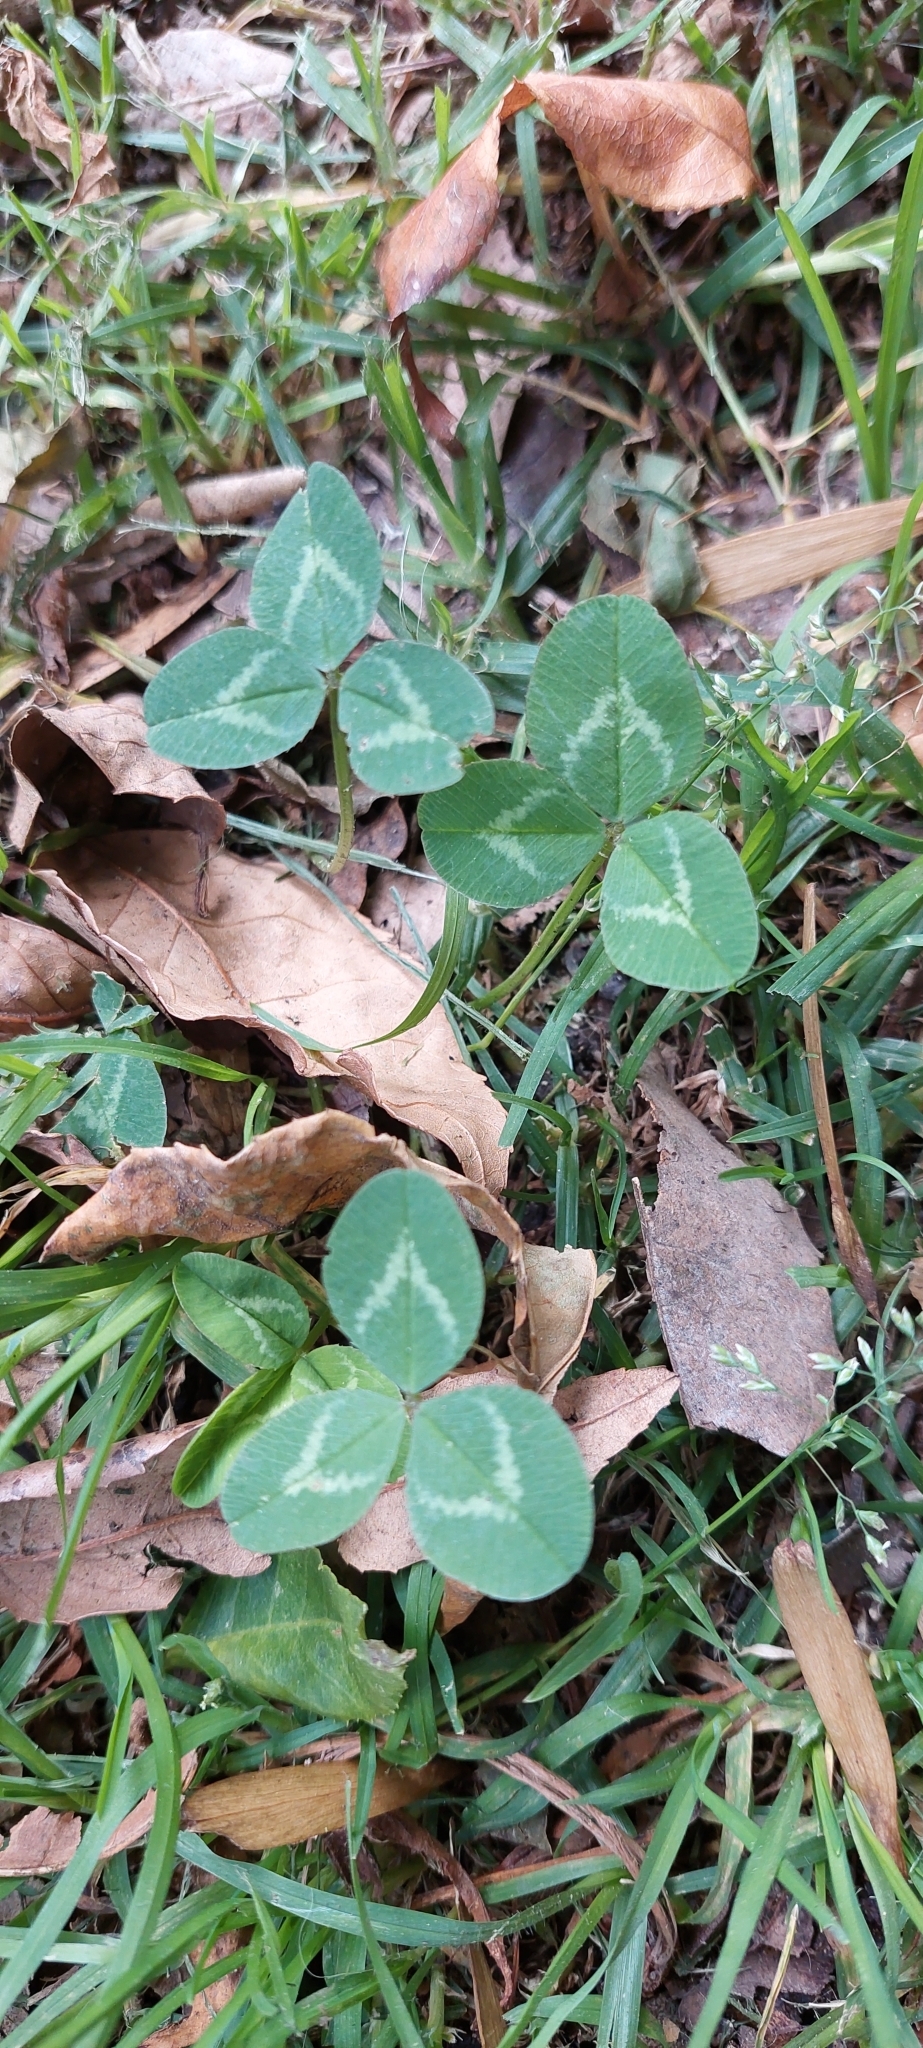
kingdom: Plantae
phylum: Tracheophyta
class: Magnoliopsida
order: Fabales
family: Fabaceae
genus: Trifolium
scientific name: Trifolium repens
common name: White clover
